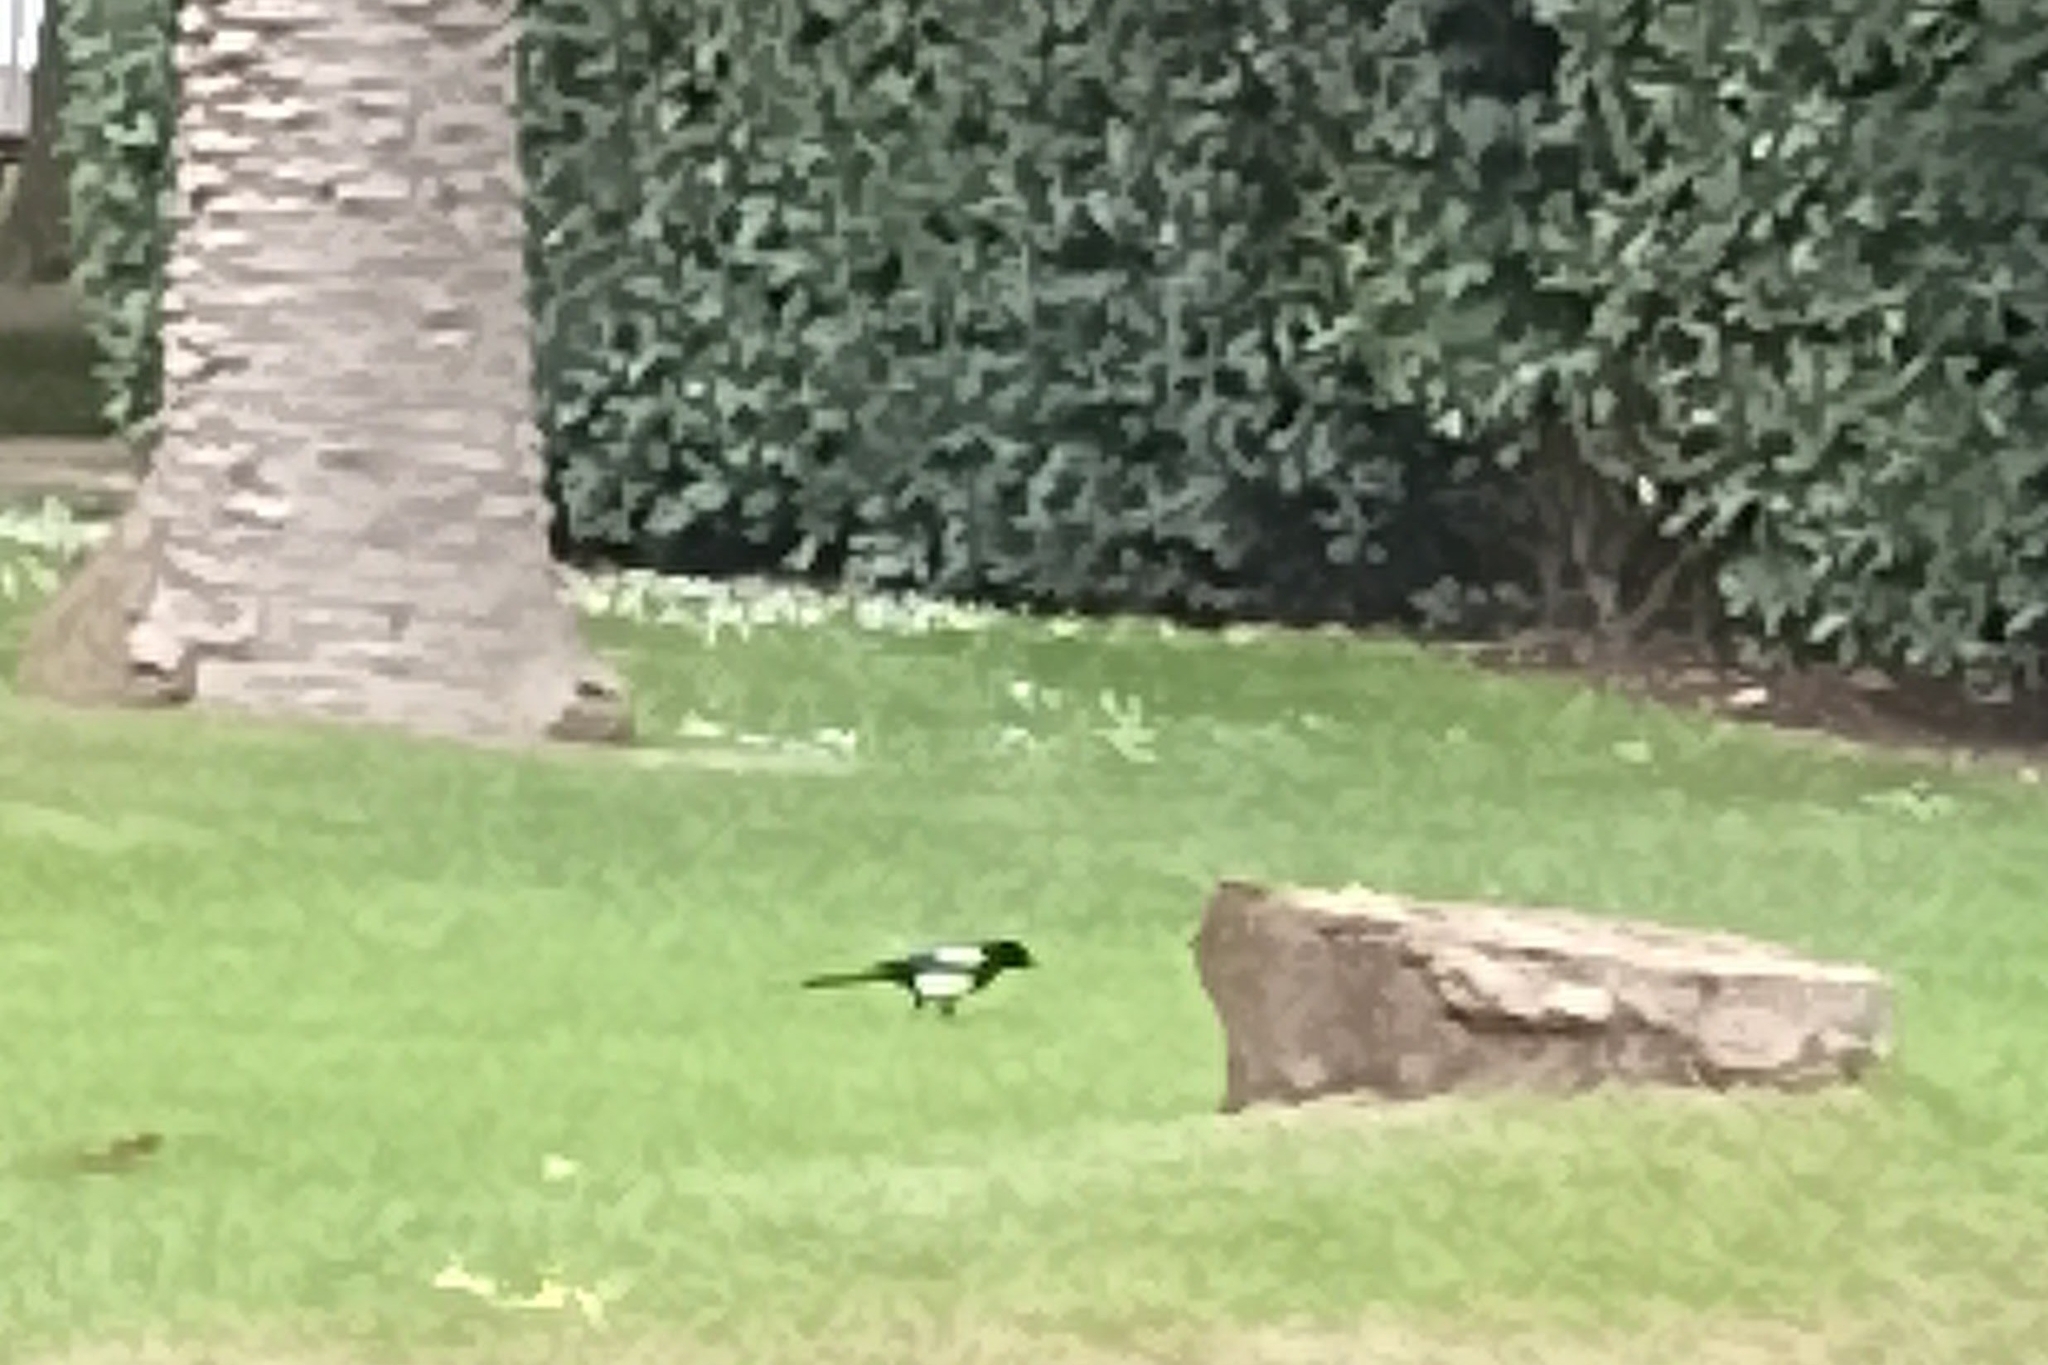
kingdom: Animalia
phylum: Chordata
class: Aves
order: Passeriformes
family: Corvidae
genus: Pica
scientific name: Pica pica
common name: Eurasian magpie
